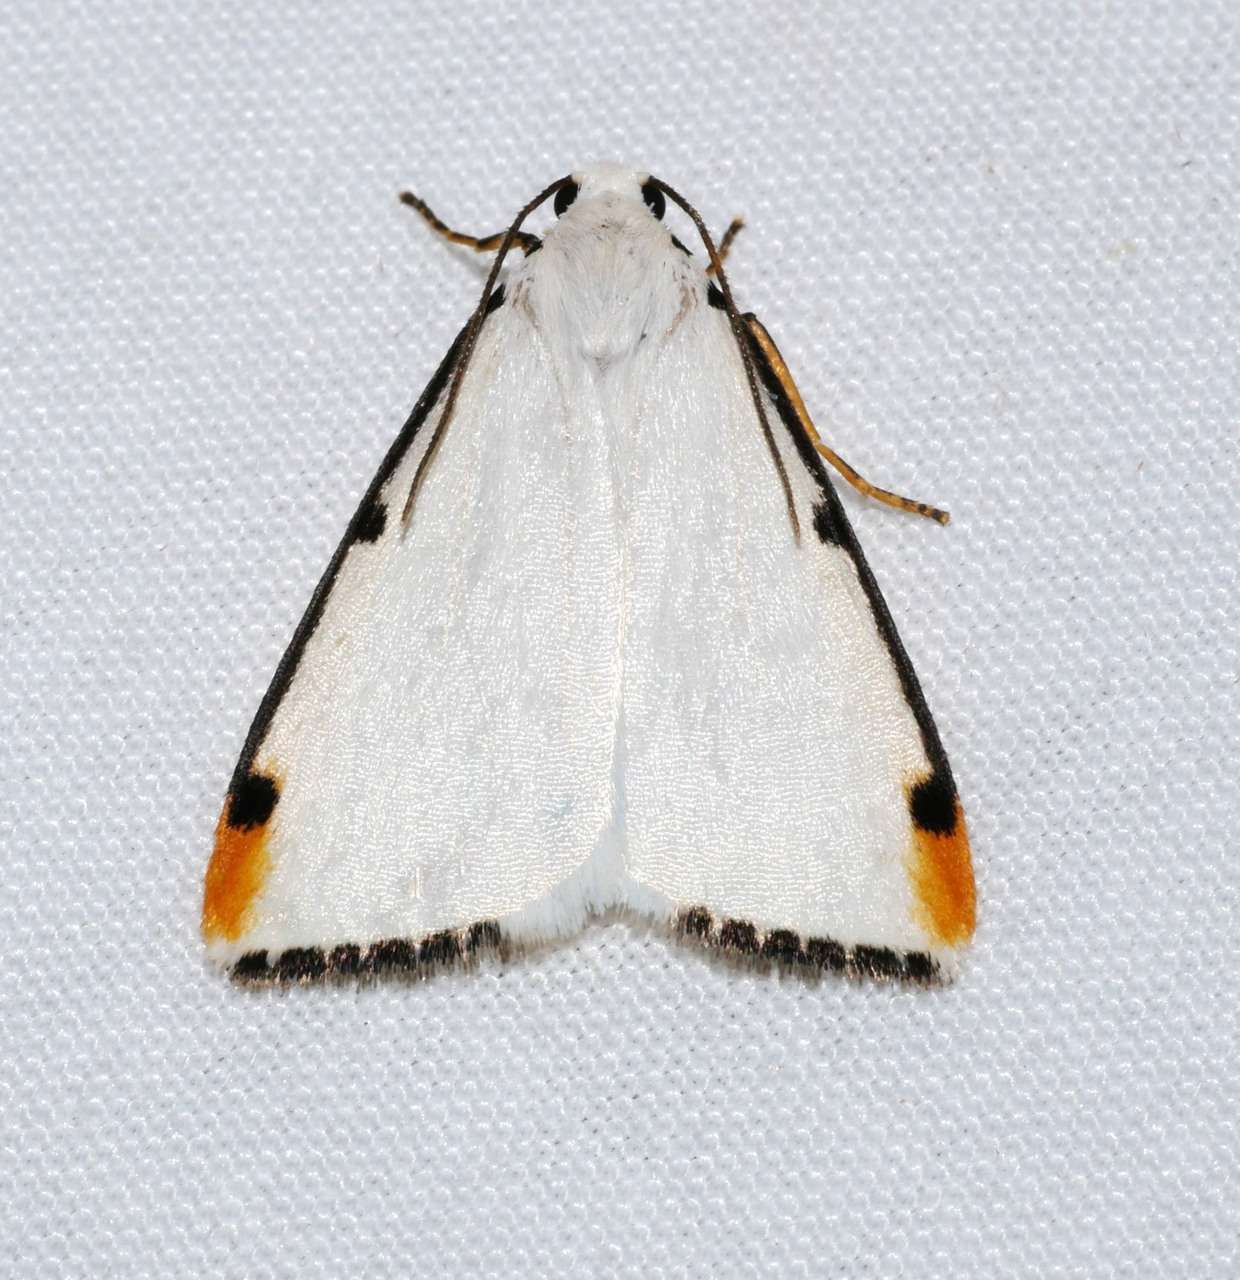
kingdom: Animalia
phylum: Arthropoda
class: Insecta
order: Lepidoptera
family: Erebidae
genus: Termessa
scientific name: Termessa nivosa
